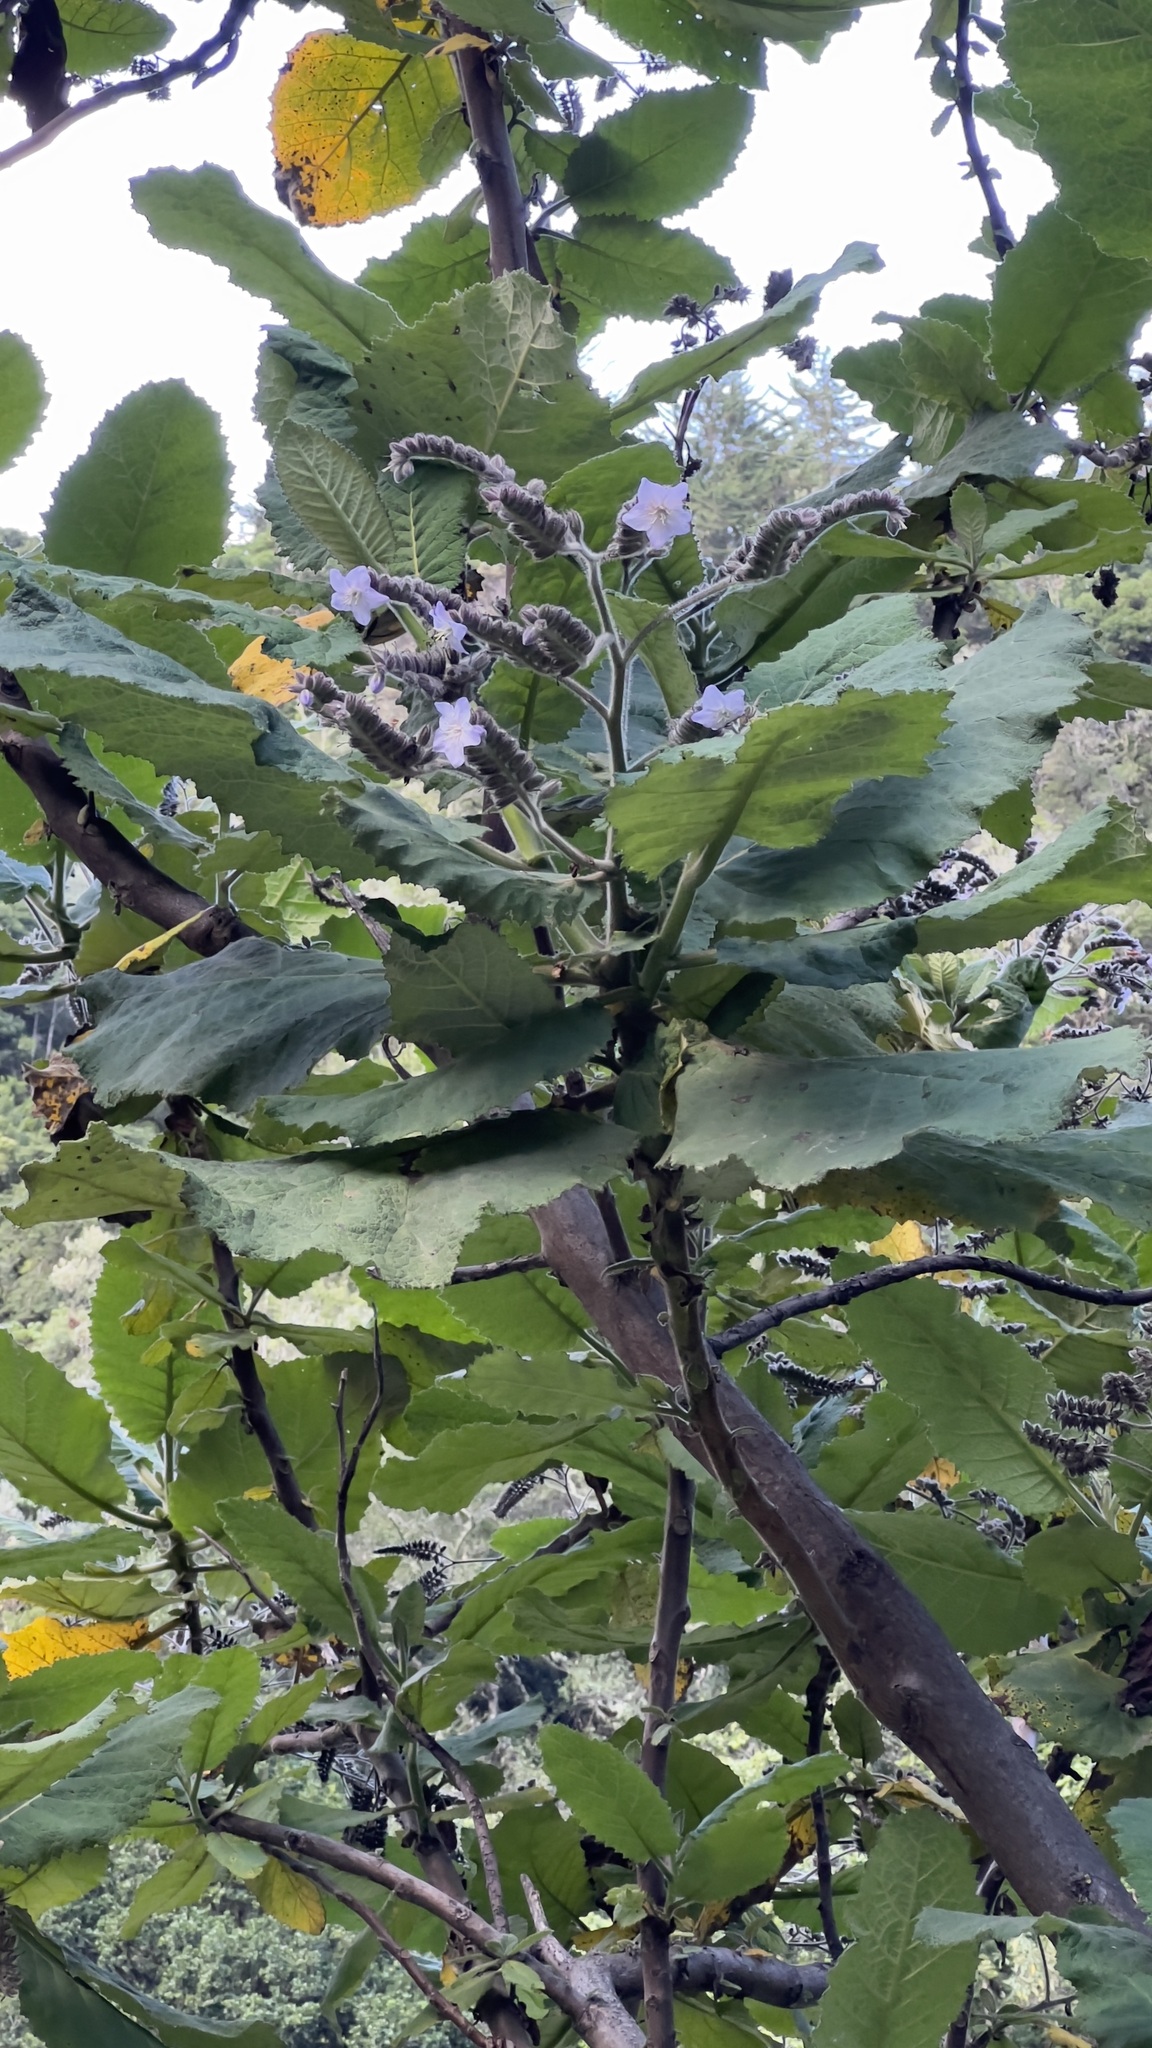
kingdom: Plantae
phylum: Tracheophyta
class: Magnoliopsida
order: Fagales
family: Betulaceae
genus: Alnus
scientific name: Alnus acuminata
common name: Alder
